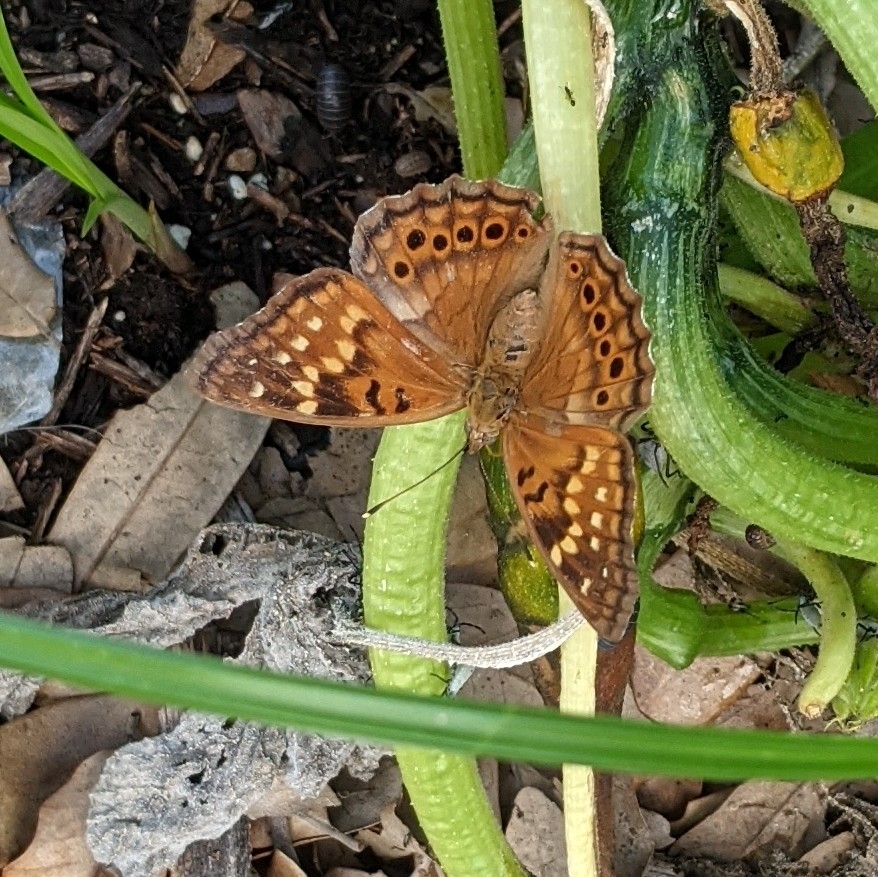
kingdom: Animalia
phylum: Arthropoda
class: Insecta
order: Lepidoptera
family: Nymphalidae
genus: Asterocampa
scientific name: Asterocampa clyton
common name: Tawny emperor
